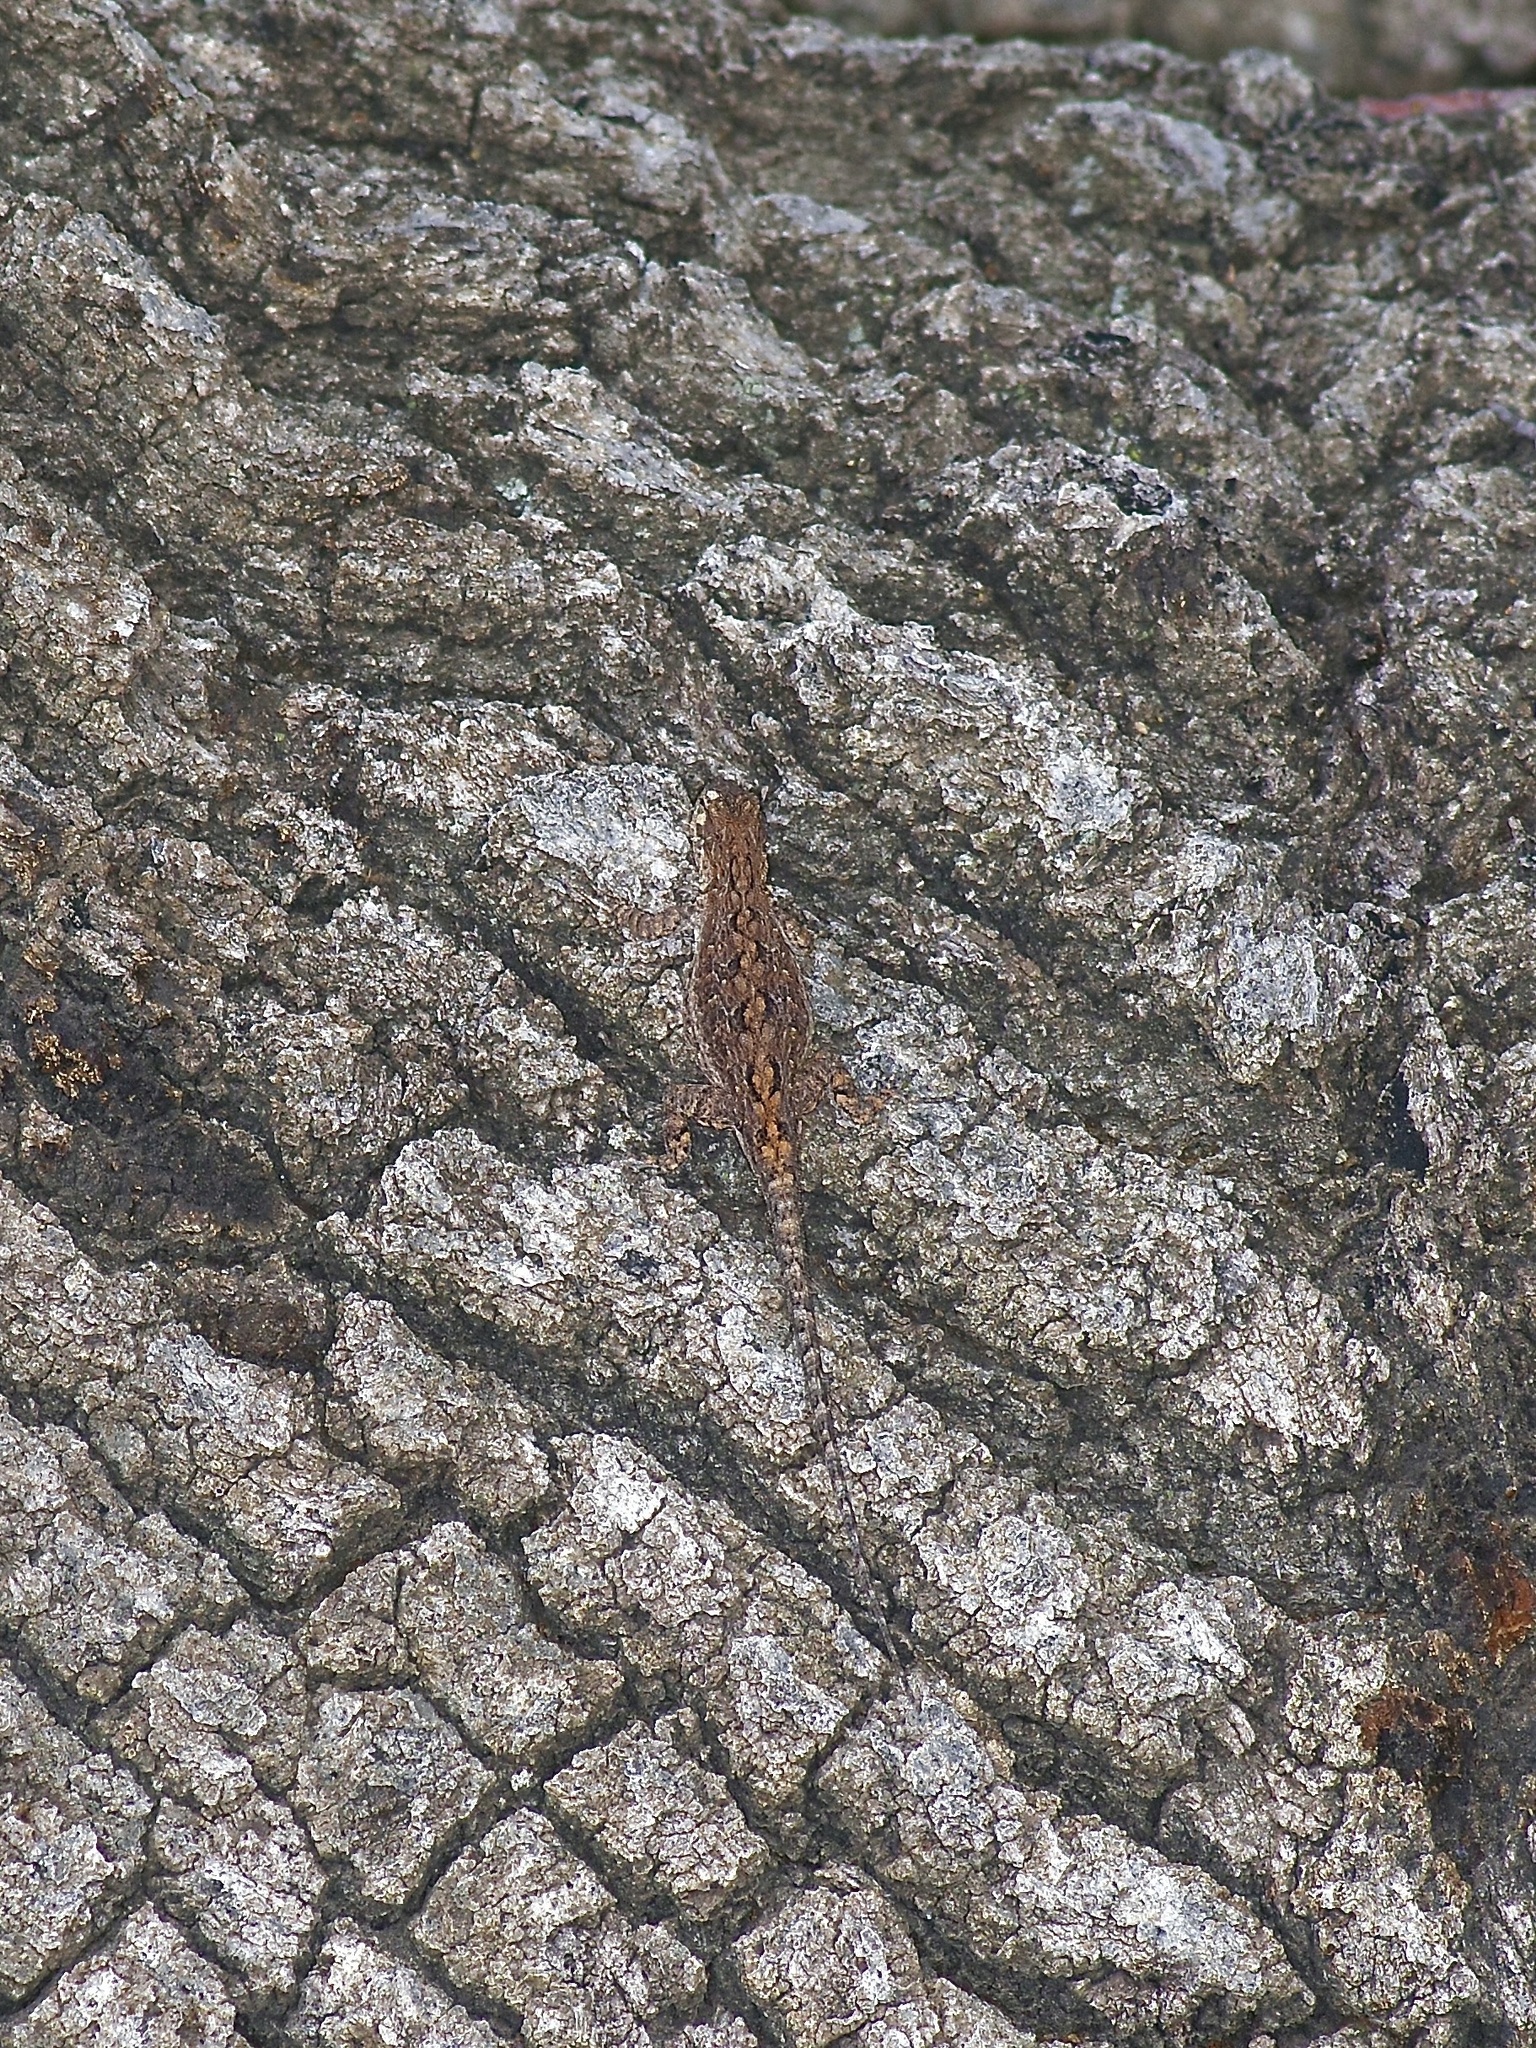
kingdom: Animalia
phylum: Chordata
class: Squamata
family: Phrynosomatidae
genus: Urosaurus
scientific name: Urosaurus ornatus
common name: Ornate tree lizard
